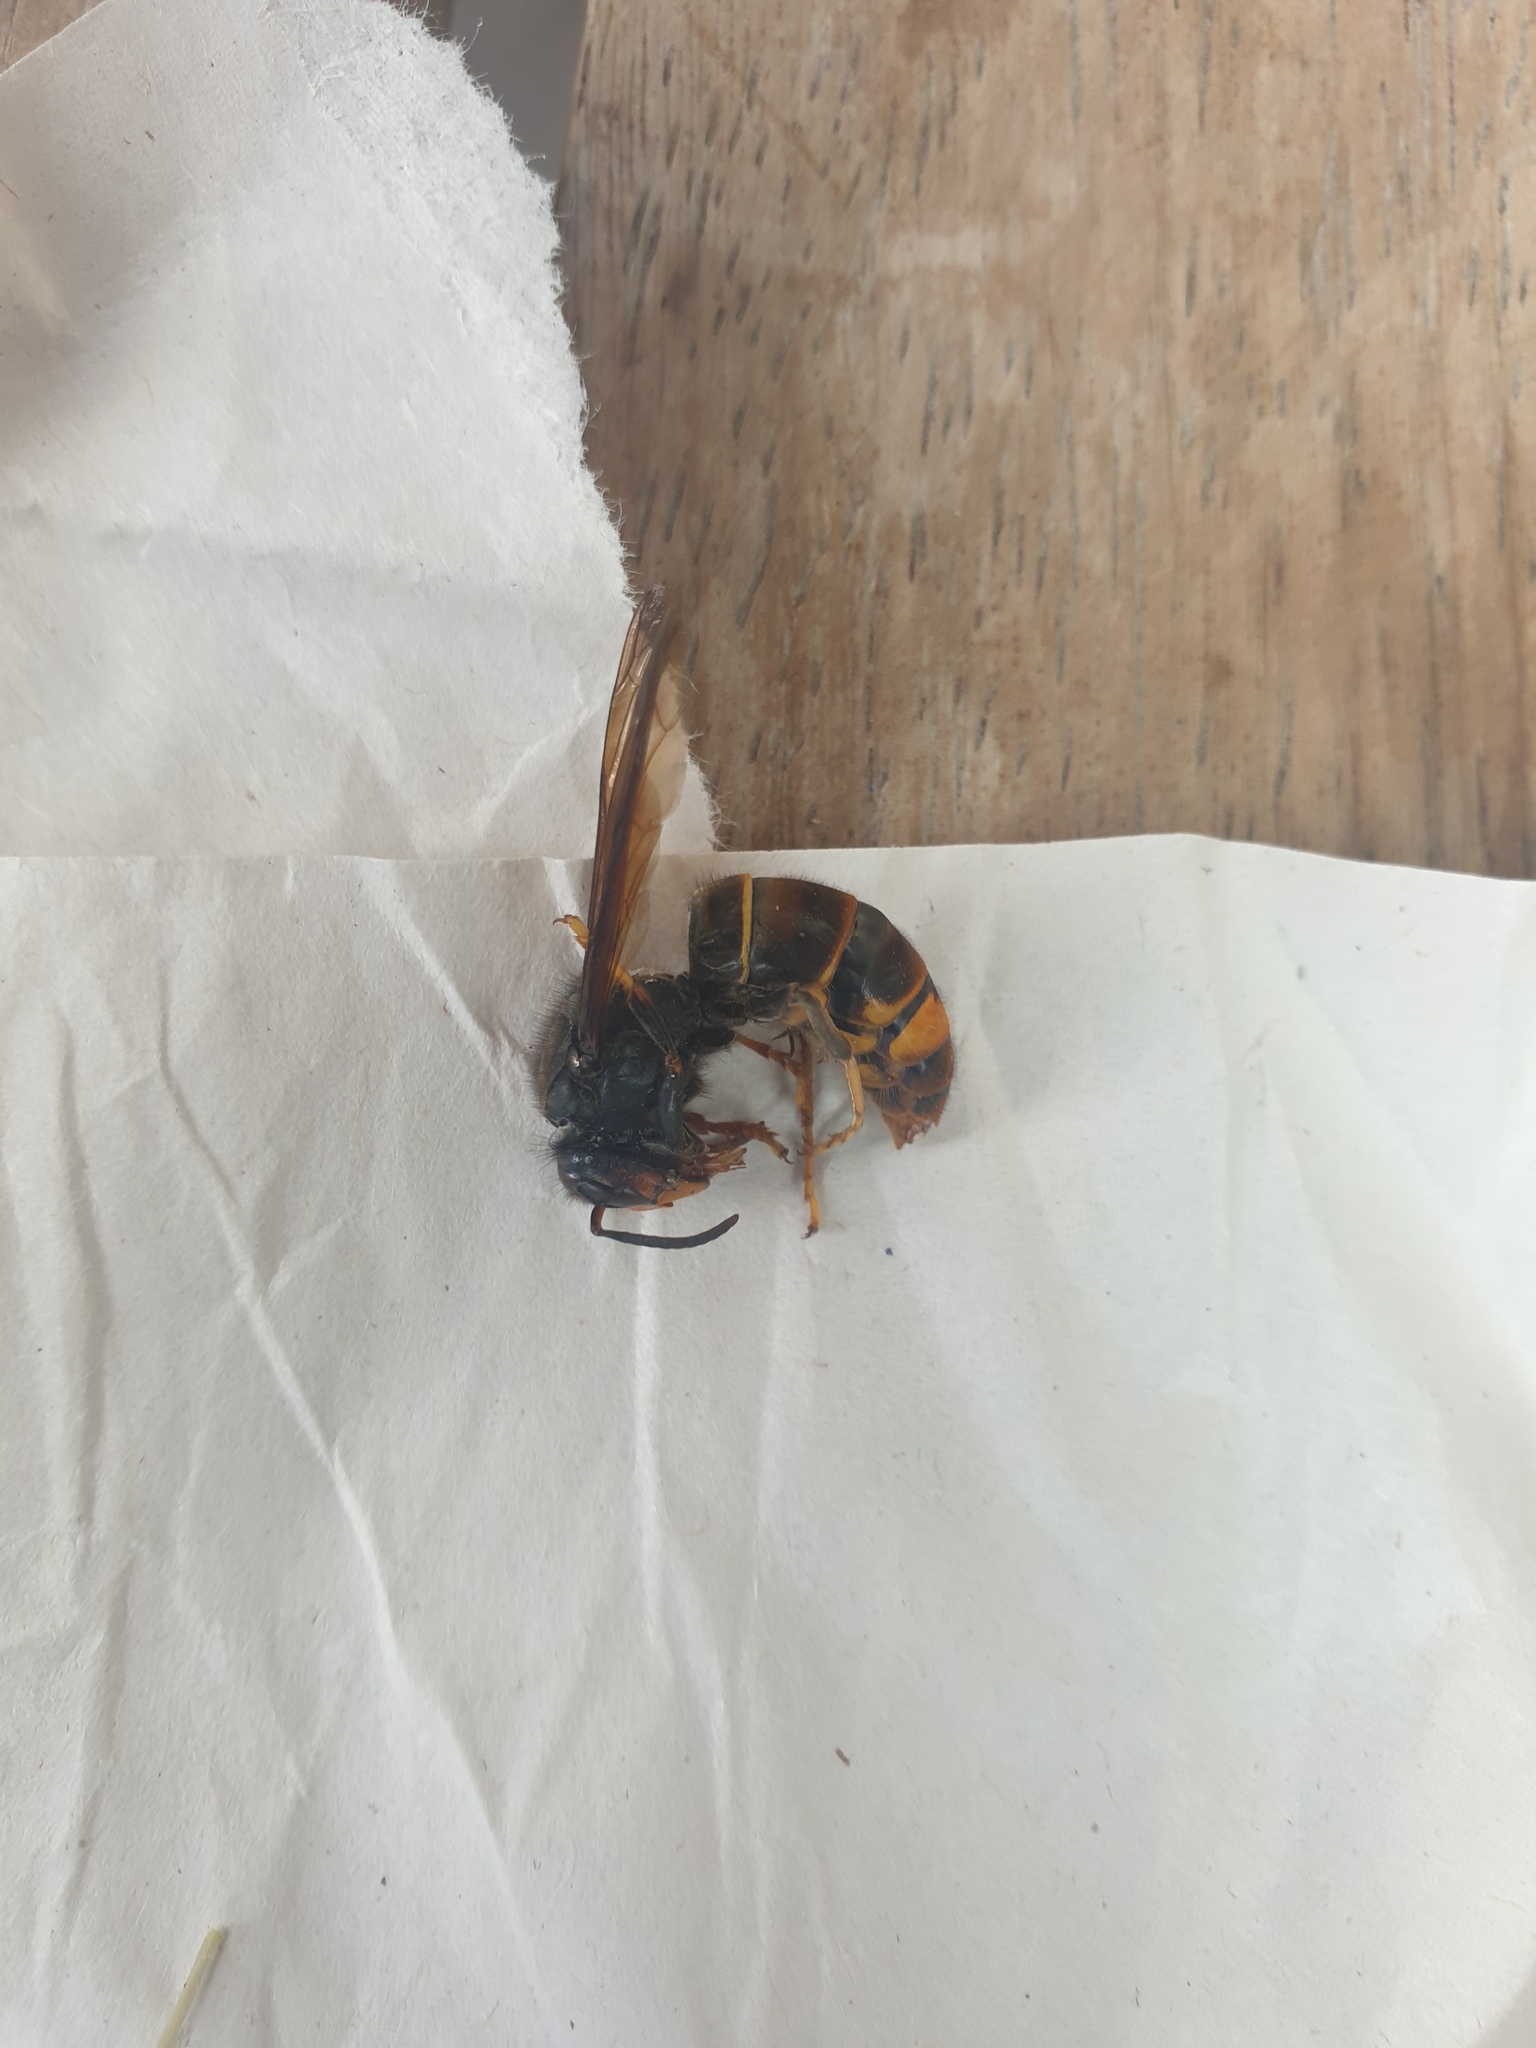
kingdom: Animalia
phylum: Arthropoda
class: Insecta
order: Hymenoptera
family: Vespidae
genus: Vespa
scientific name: Vespa velutina
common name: Asian hornet
